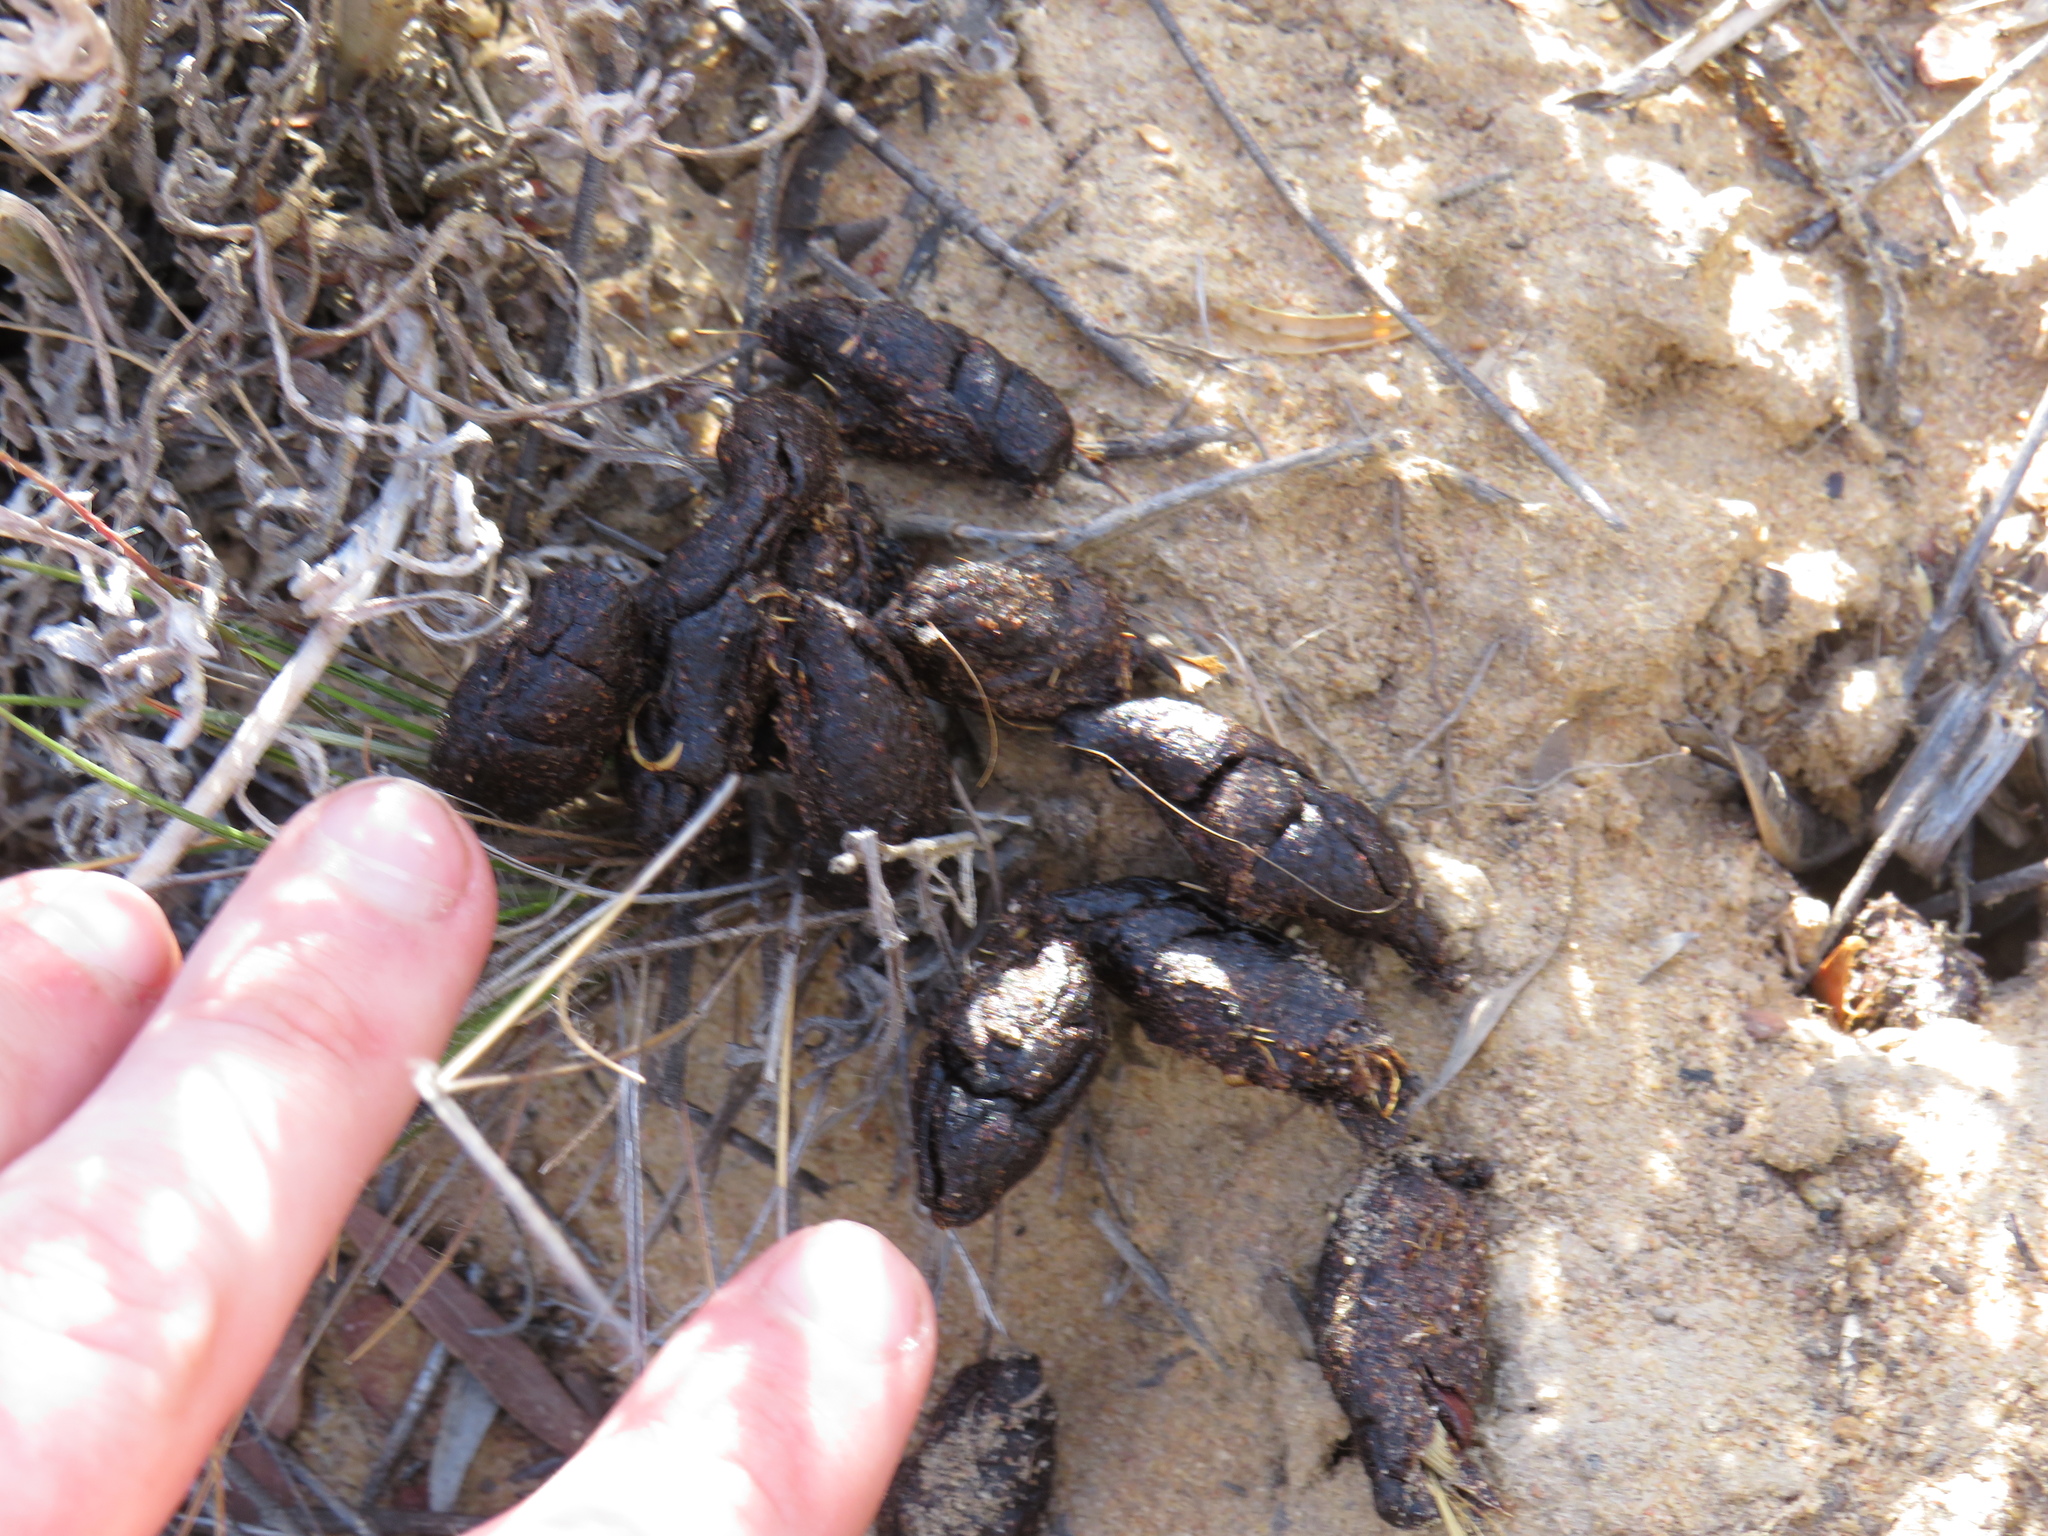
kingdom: Animalia
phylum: Chordata
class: Mammalia
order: Rodentia
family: Hystricidae
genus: Hystrix
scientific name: Hystrix africaeaustralis
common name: Cape porcupine
